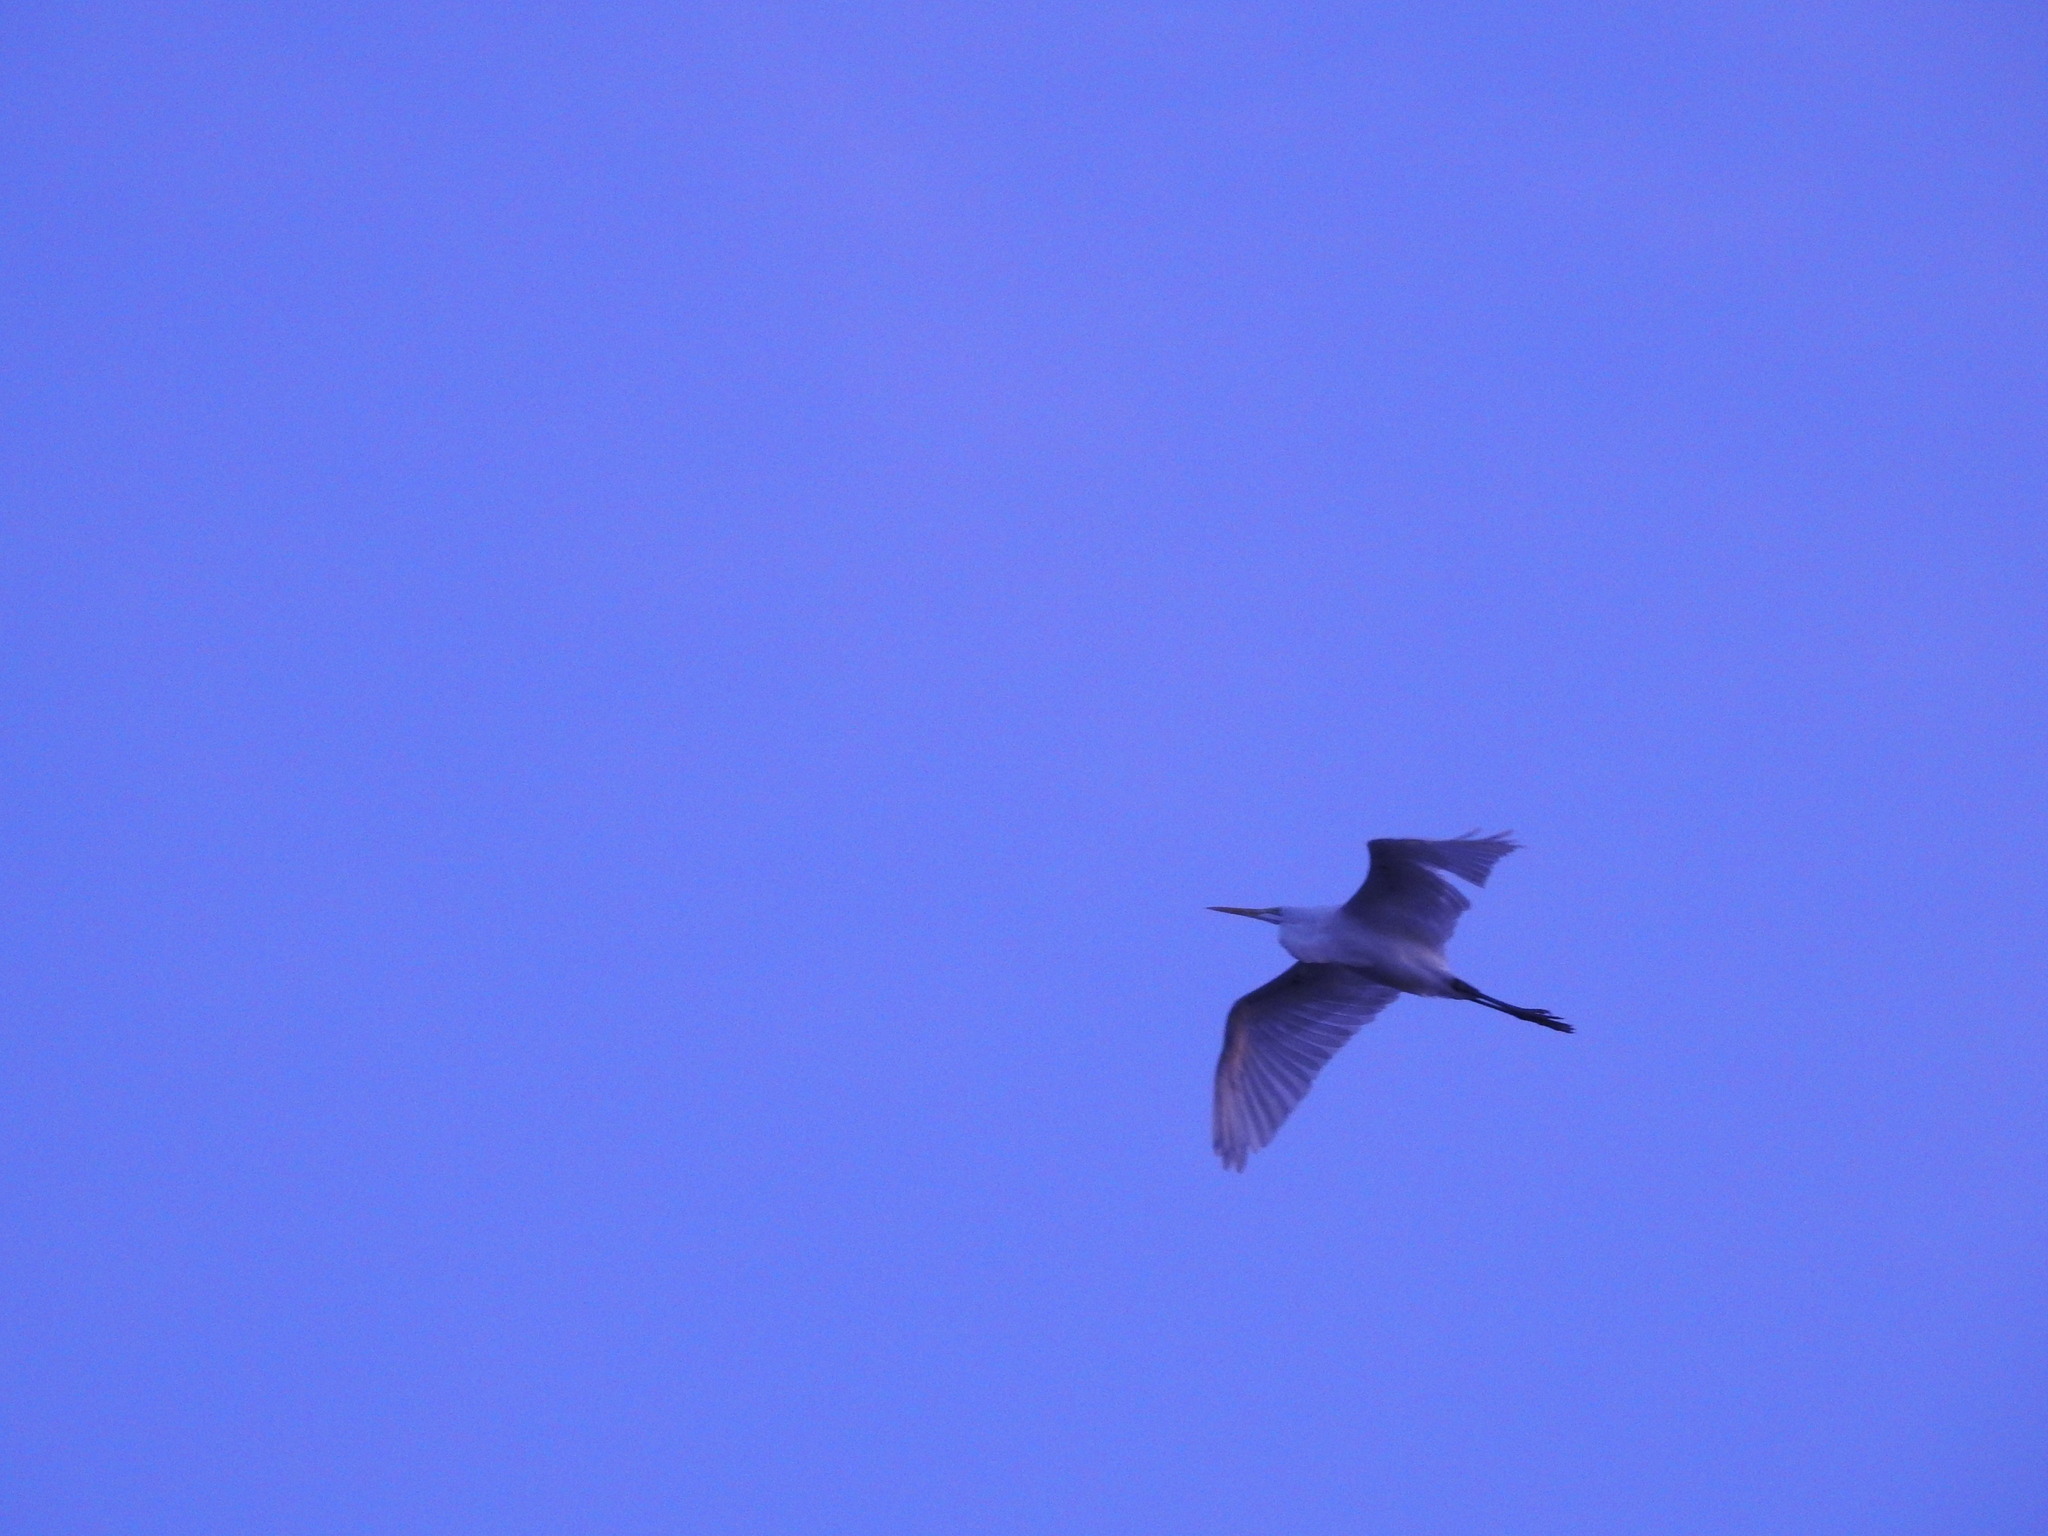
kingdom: Animalia
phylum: Chordata
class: Aves
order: Pelecaniformes
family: Ardeidae
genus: Ardea
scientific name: Ardea alba
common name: Great egret
